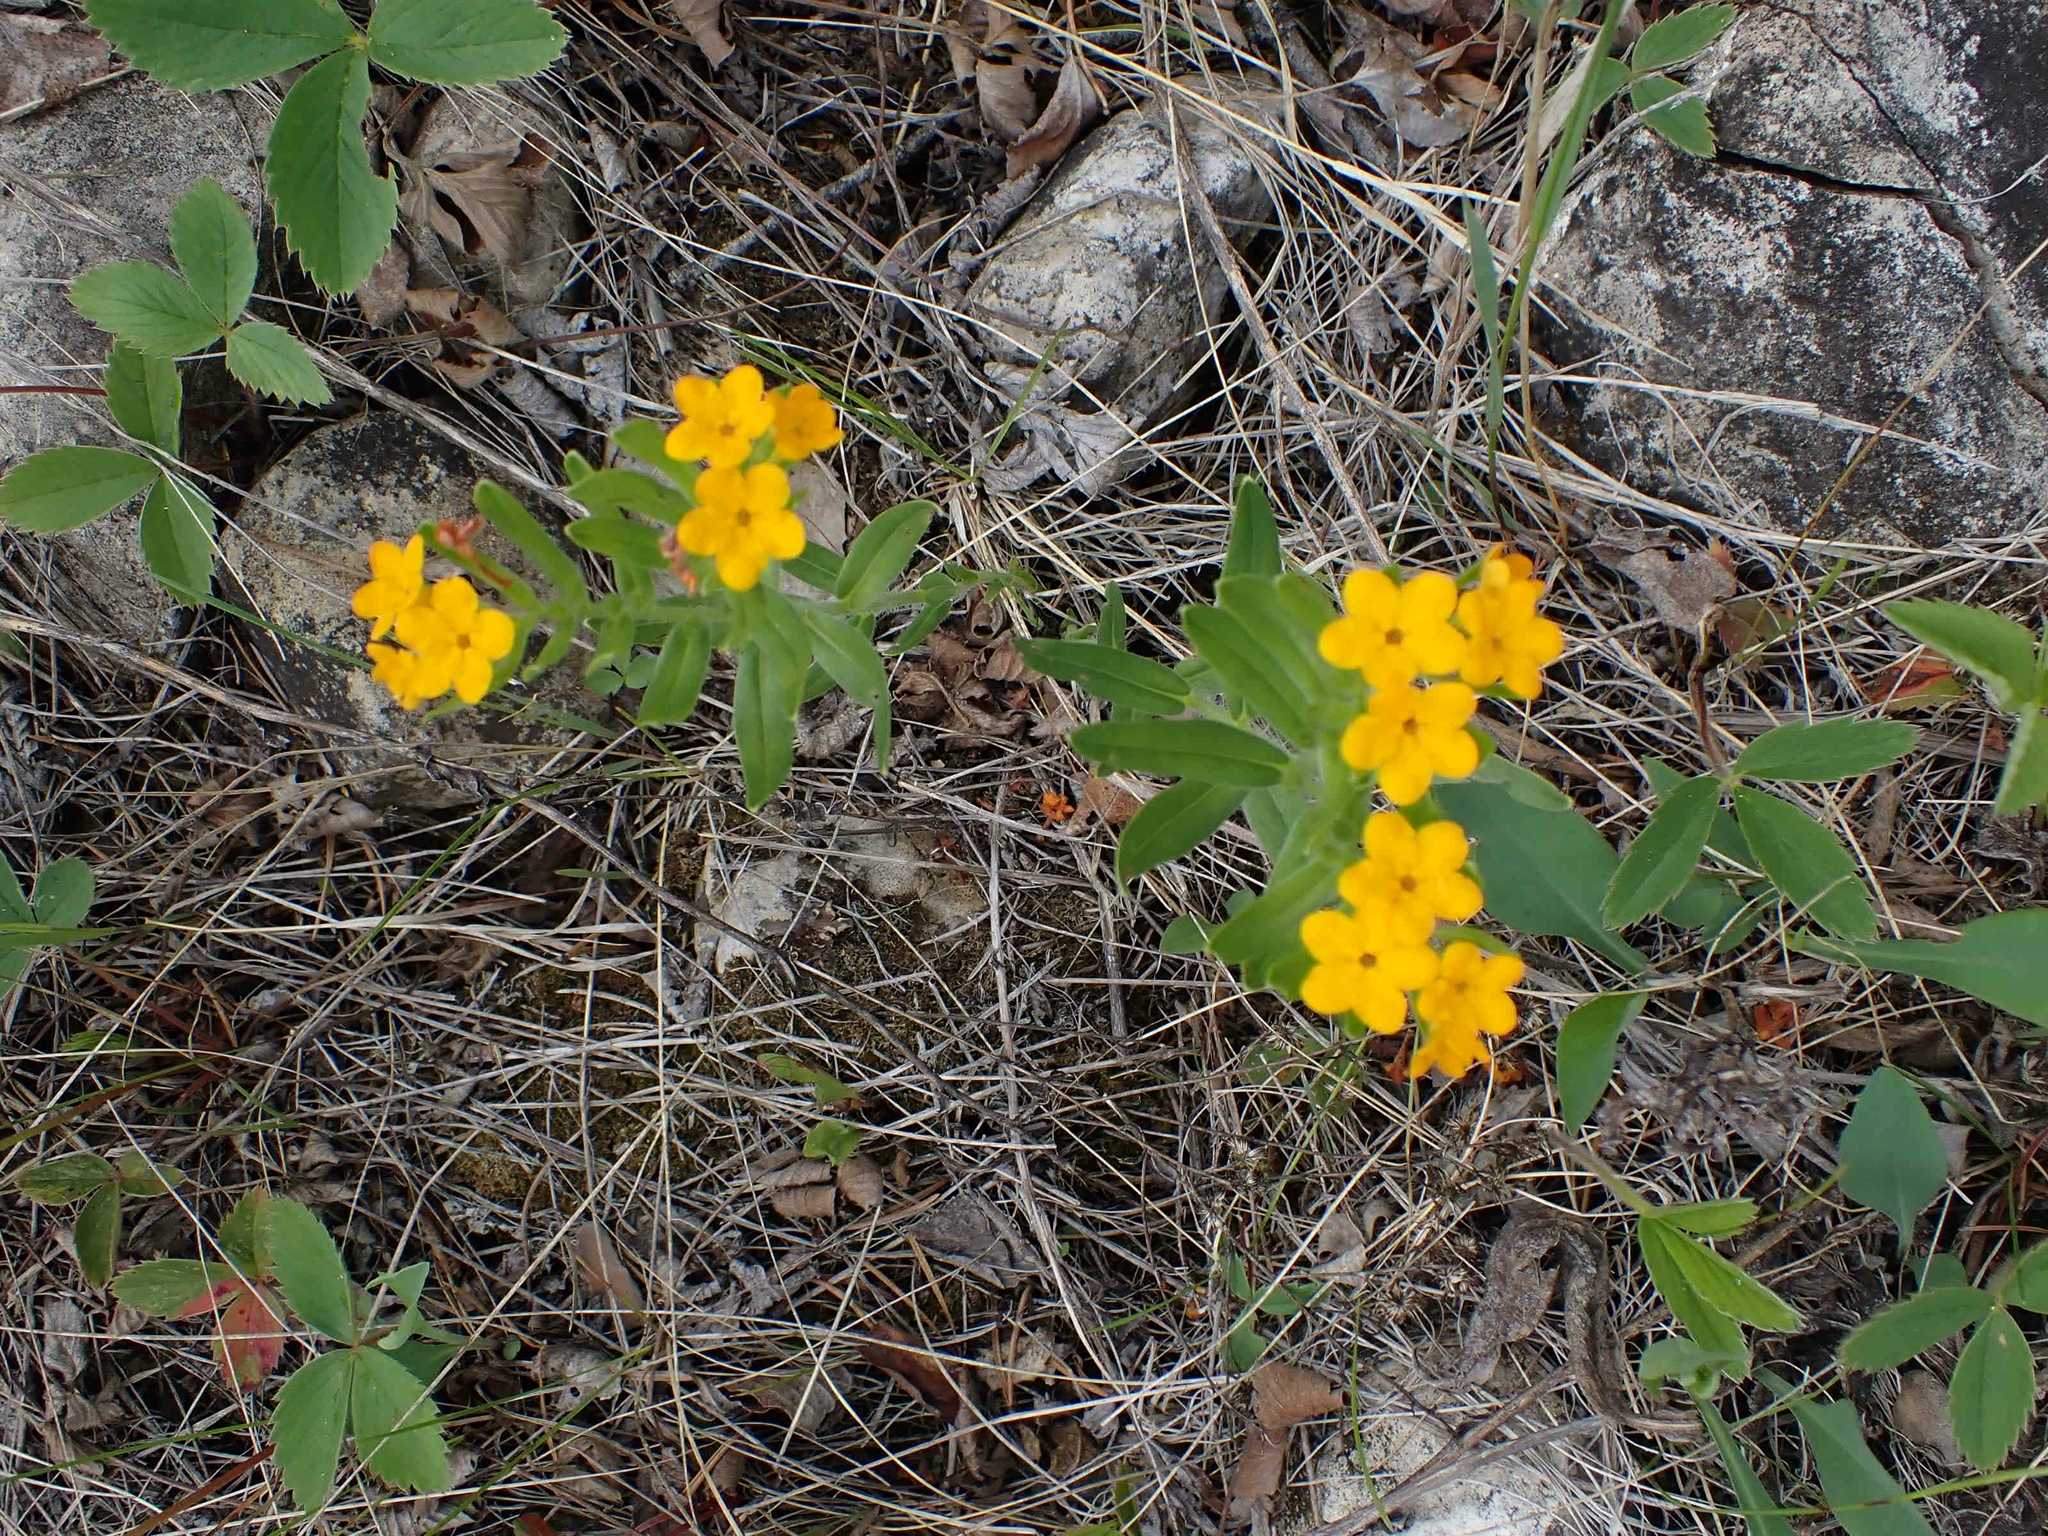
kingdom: Plantae
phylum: Tracheophyta
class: Magnoliopsida
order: Boraginales
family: Boraginaceae
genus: Lithospermum
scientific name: Lithospermum canescens
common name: Hoary puccoon
